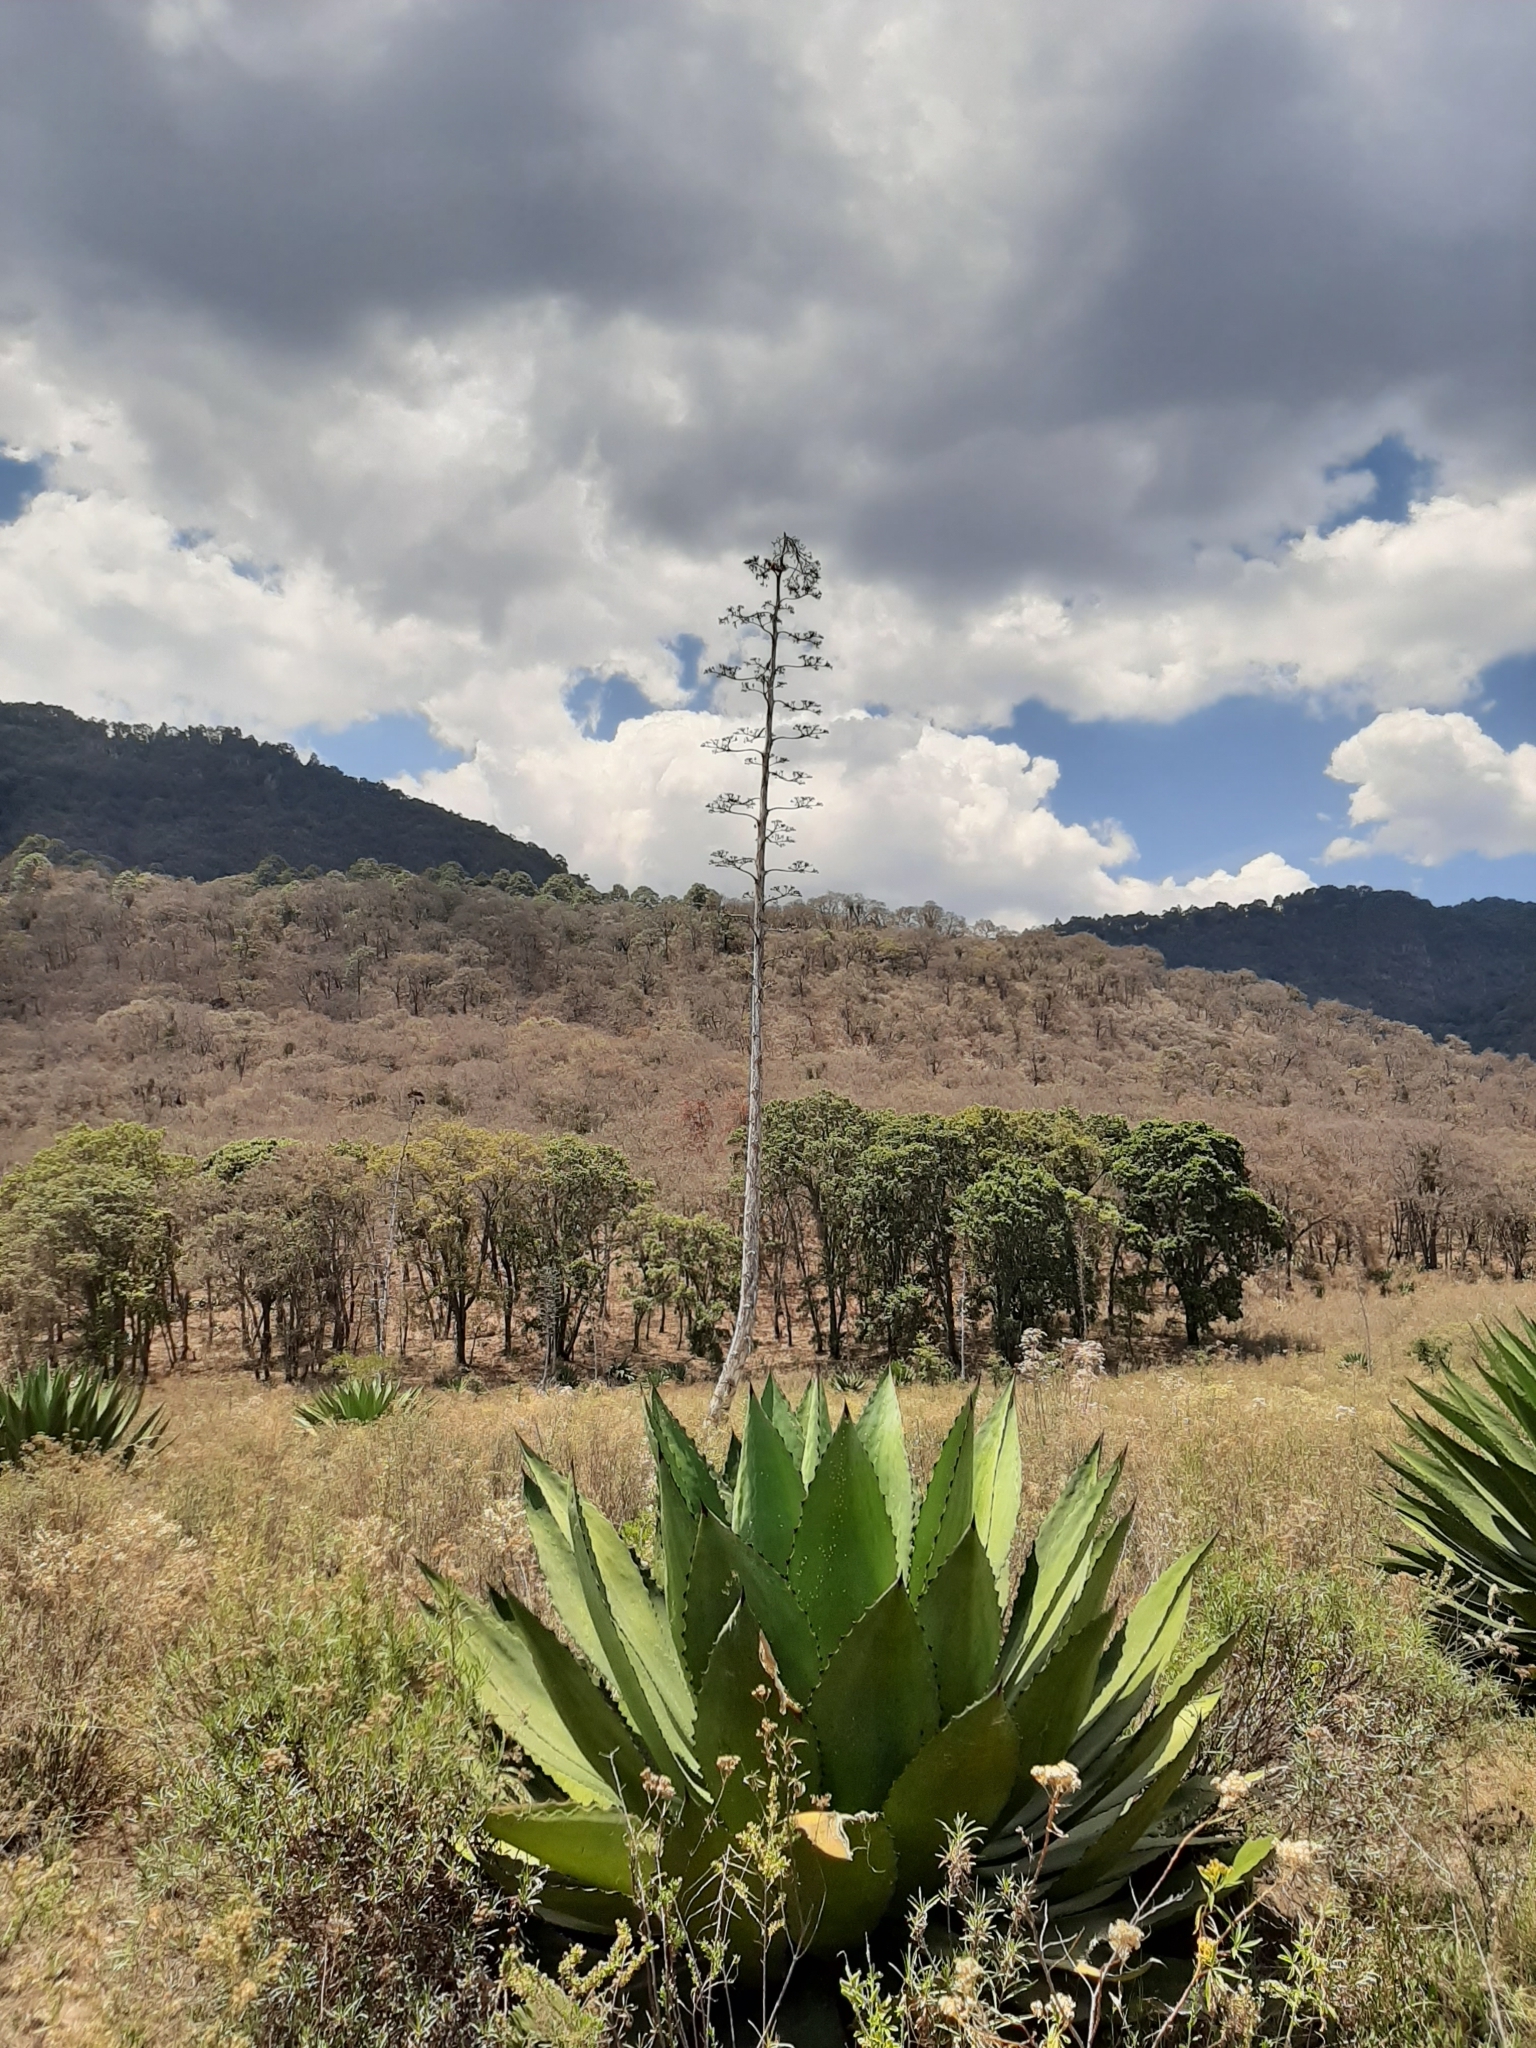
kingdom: Plantae
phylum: Tracheophyta
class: Liliopsida
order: Asparagales
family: Asparagaceae
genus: Agave
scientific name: Agave inaequidens
